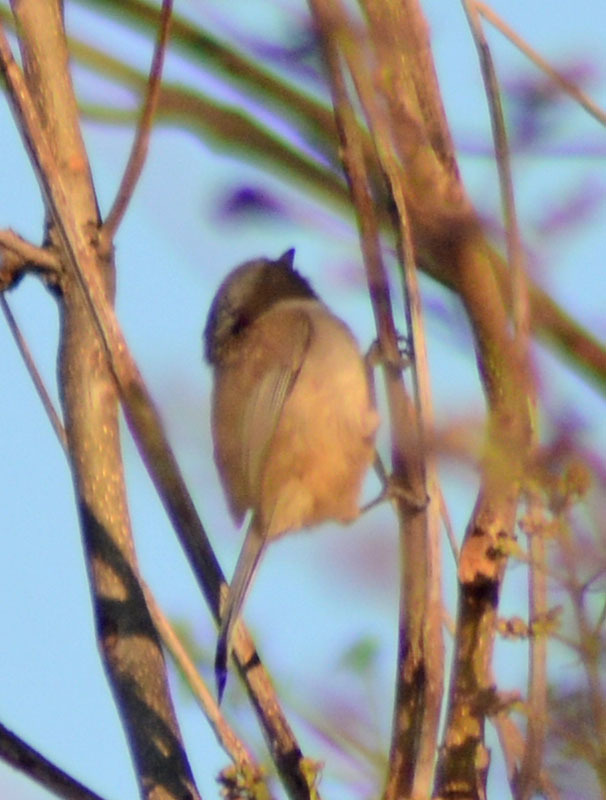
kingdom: Animalia
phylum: Chordata
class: Aves
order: Passeriformes
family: Aegithalidae
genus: Psaltriparus
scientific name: Psaltriparus minimus
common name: American bushtit
